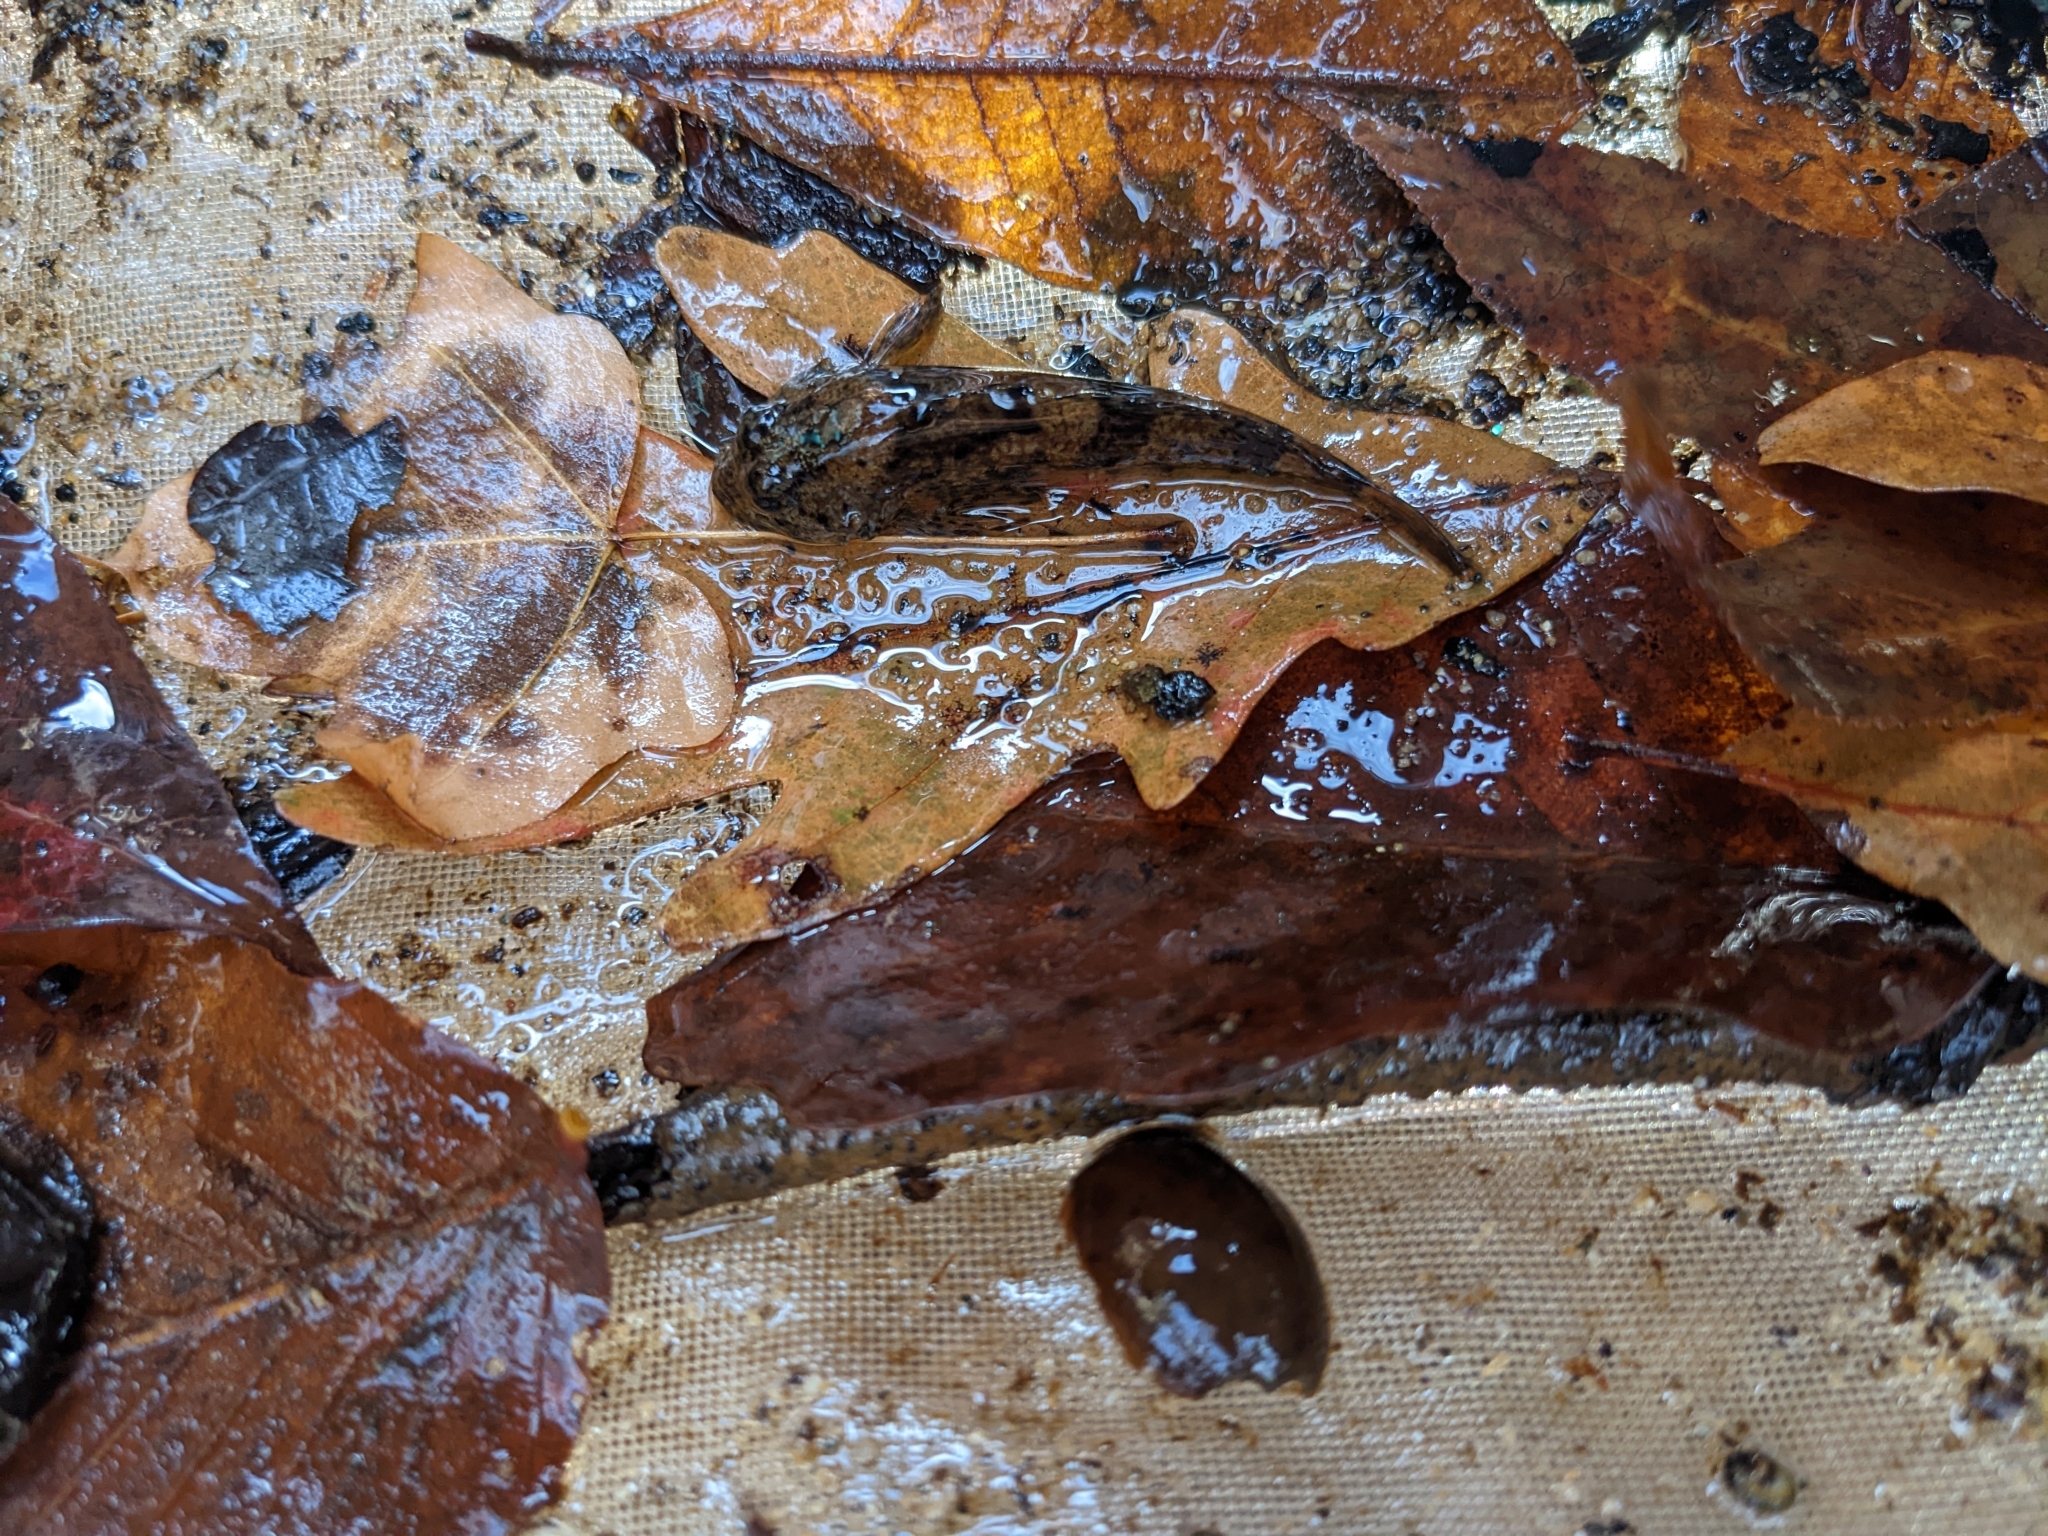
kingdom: Animalia
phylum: Chordata
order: Scorpaeniformes
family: Cottidae
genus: Cottus
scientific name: Cottus carolinae
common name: Banded sculpin
